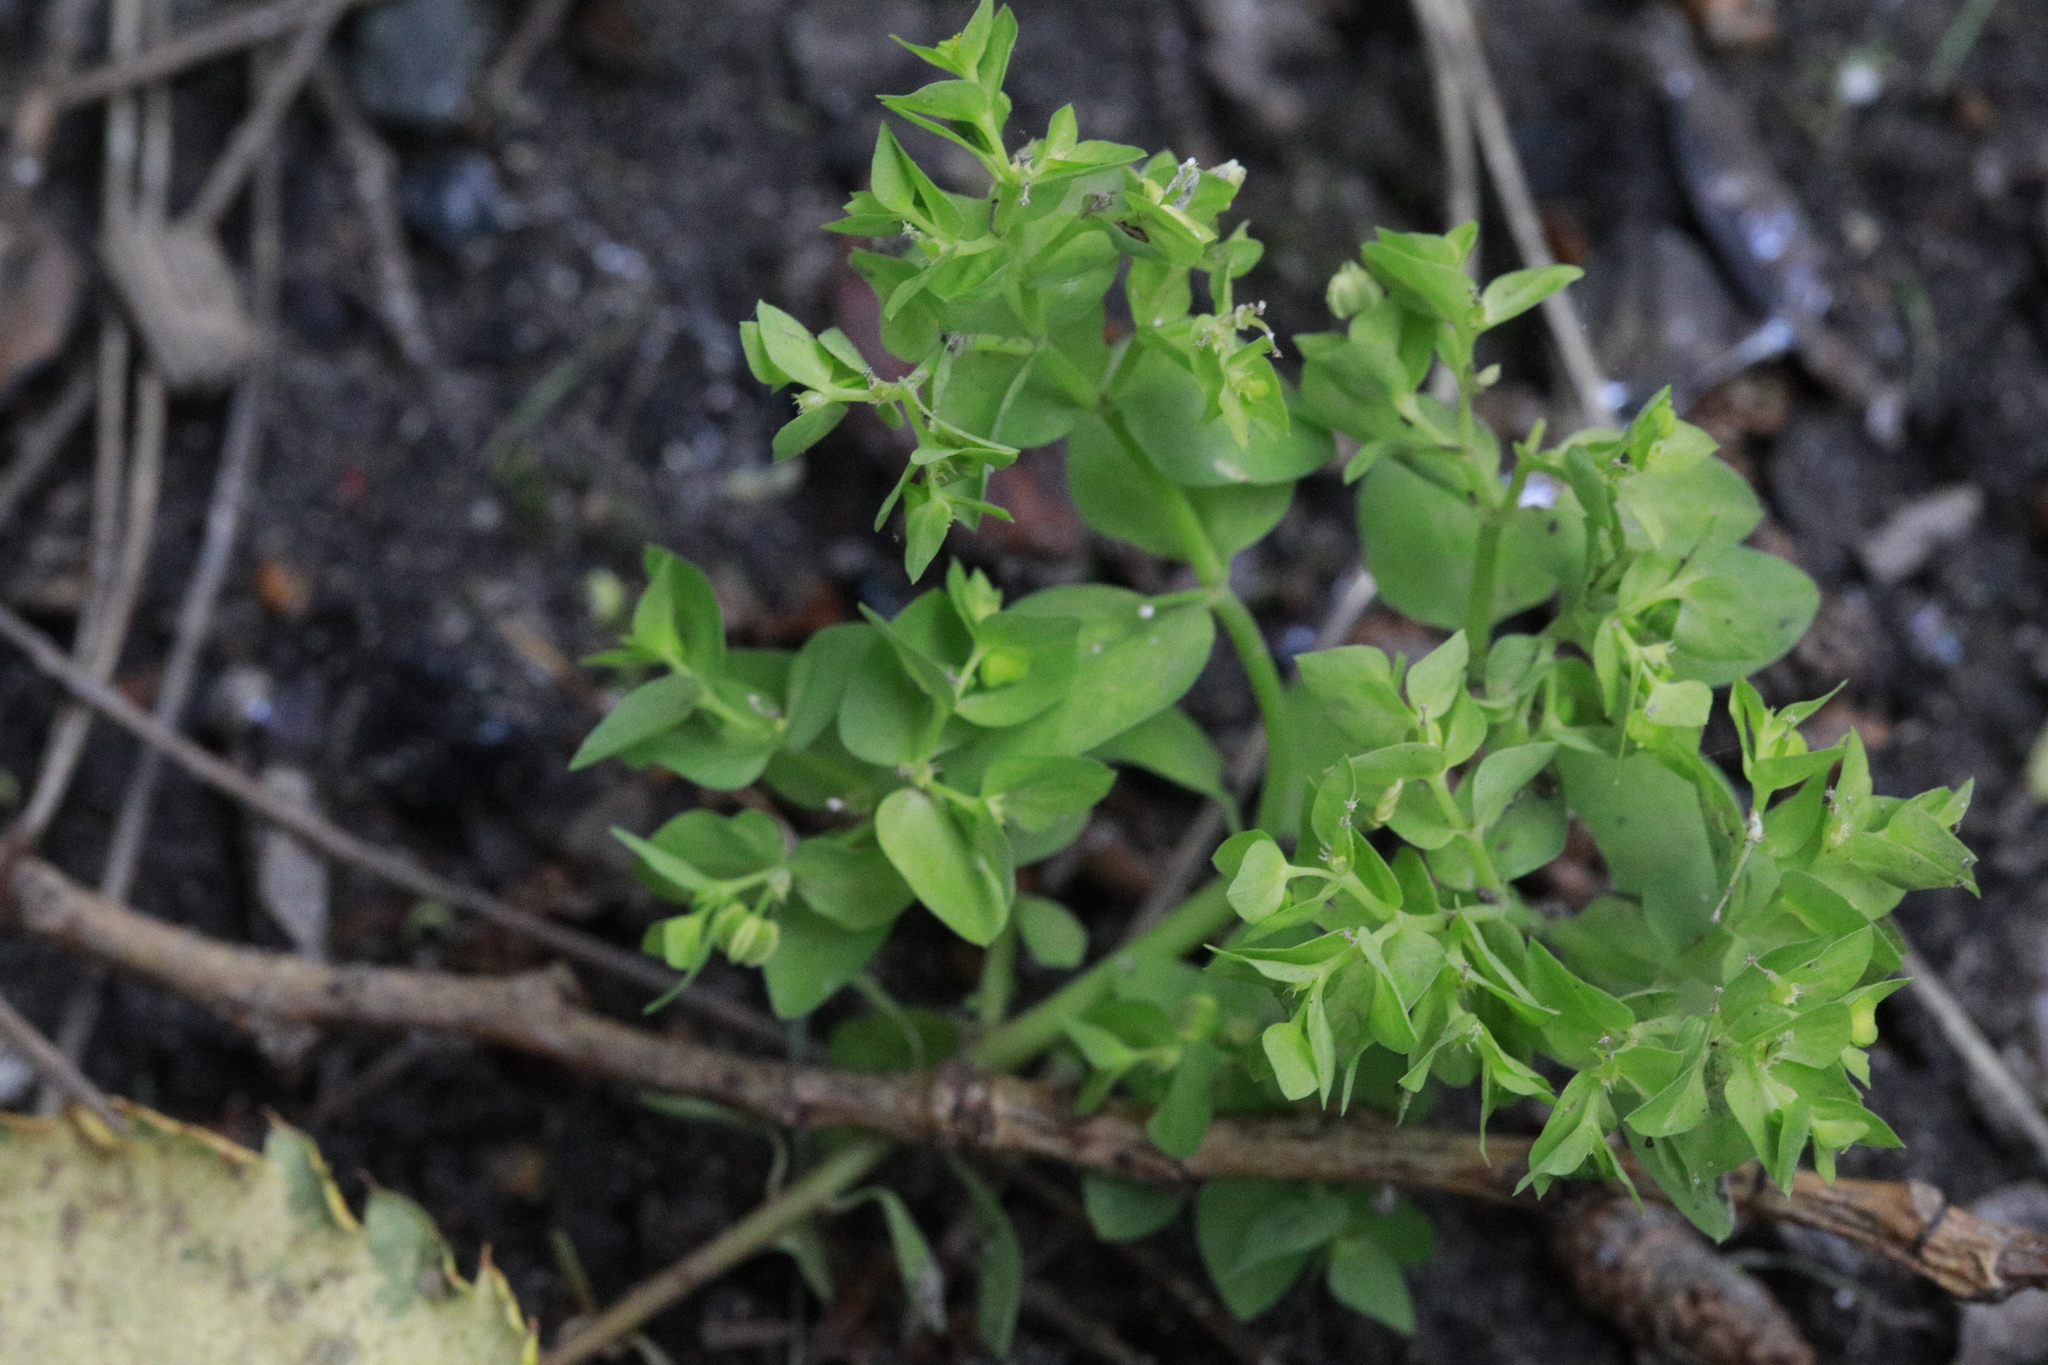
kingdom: Plantae
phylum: Tracheophyta
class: Magnoliopsida
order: Malpighiales
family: Euphorbiaceae
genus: Euphorbia
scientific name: Euphorbia peplus
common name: Petty spurge
